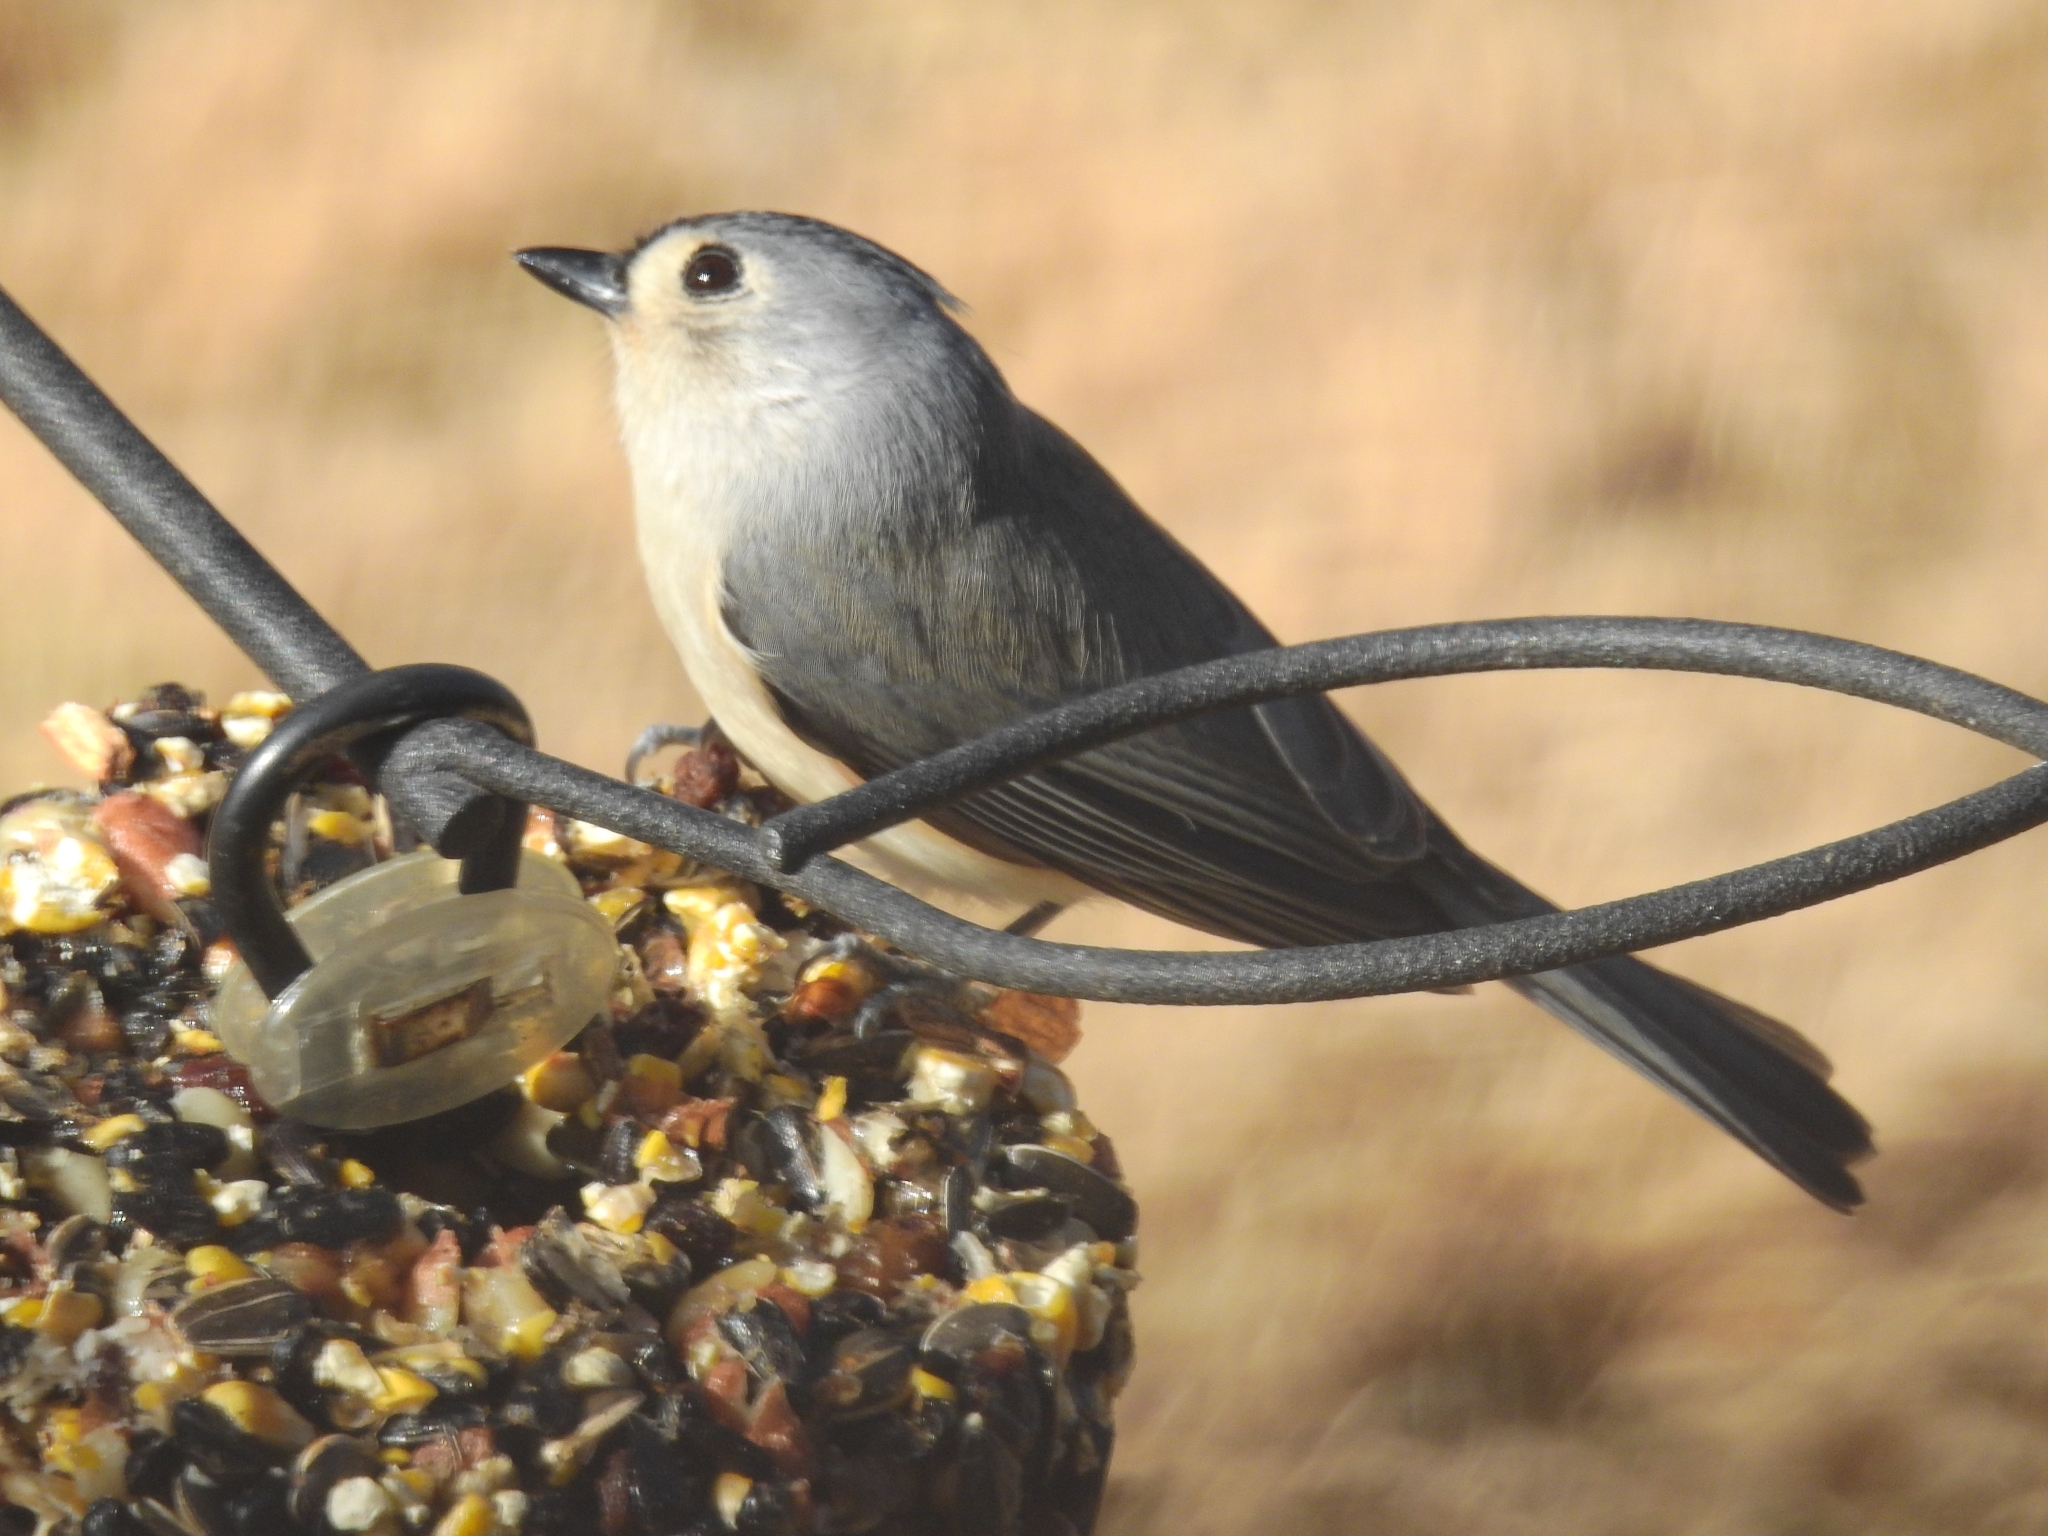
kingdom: Animalia
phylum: Chordata
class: Aves
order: Passeriformes
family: Paridae
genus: Baeolophus
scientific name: Baeolophus bicolor
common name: Tufted titmouse
